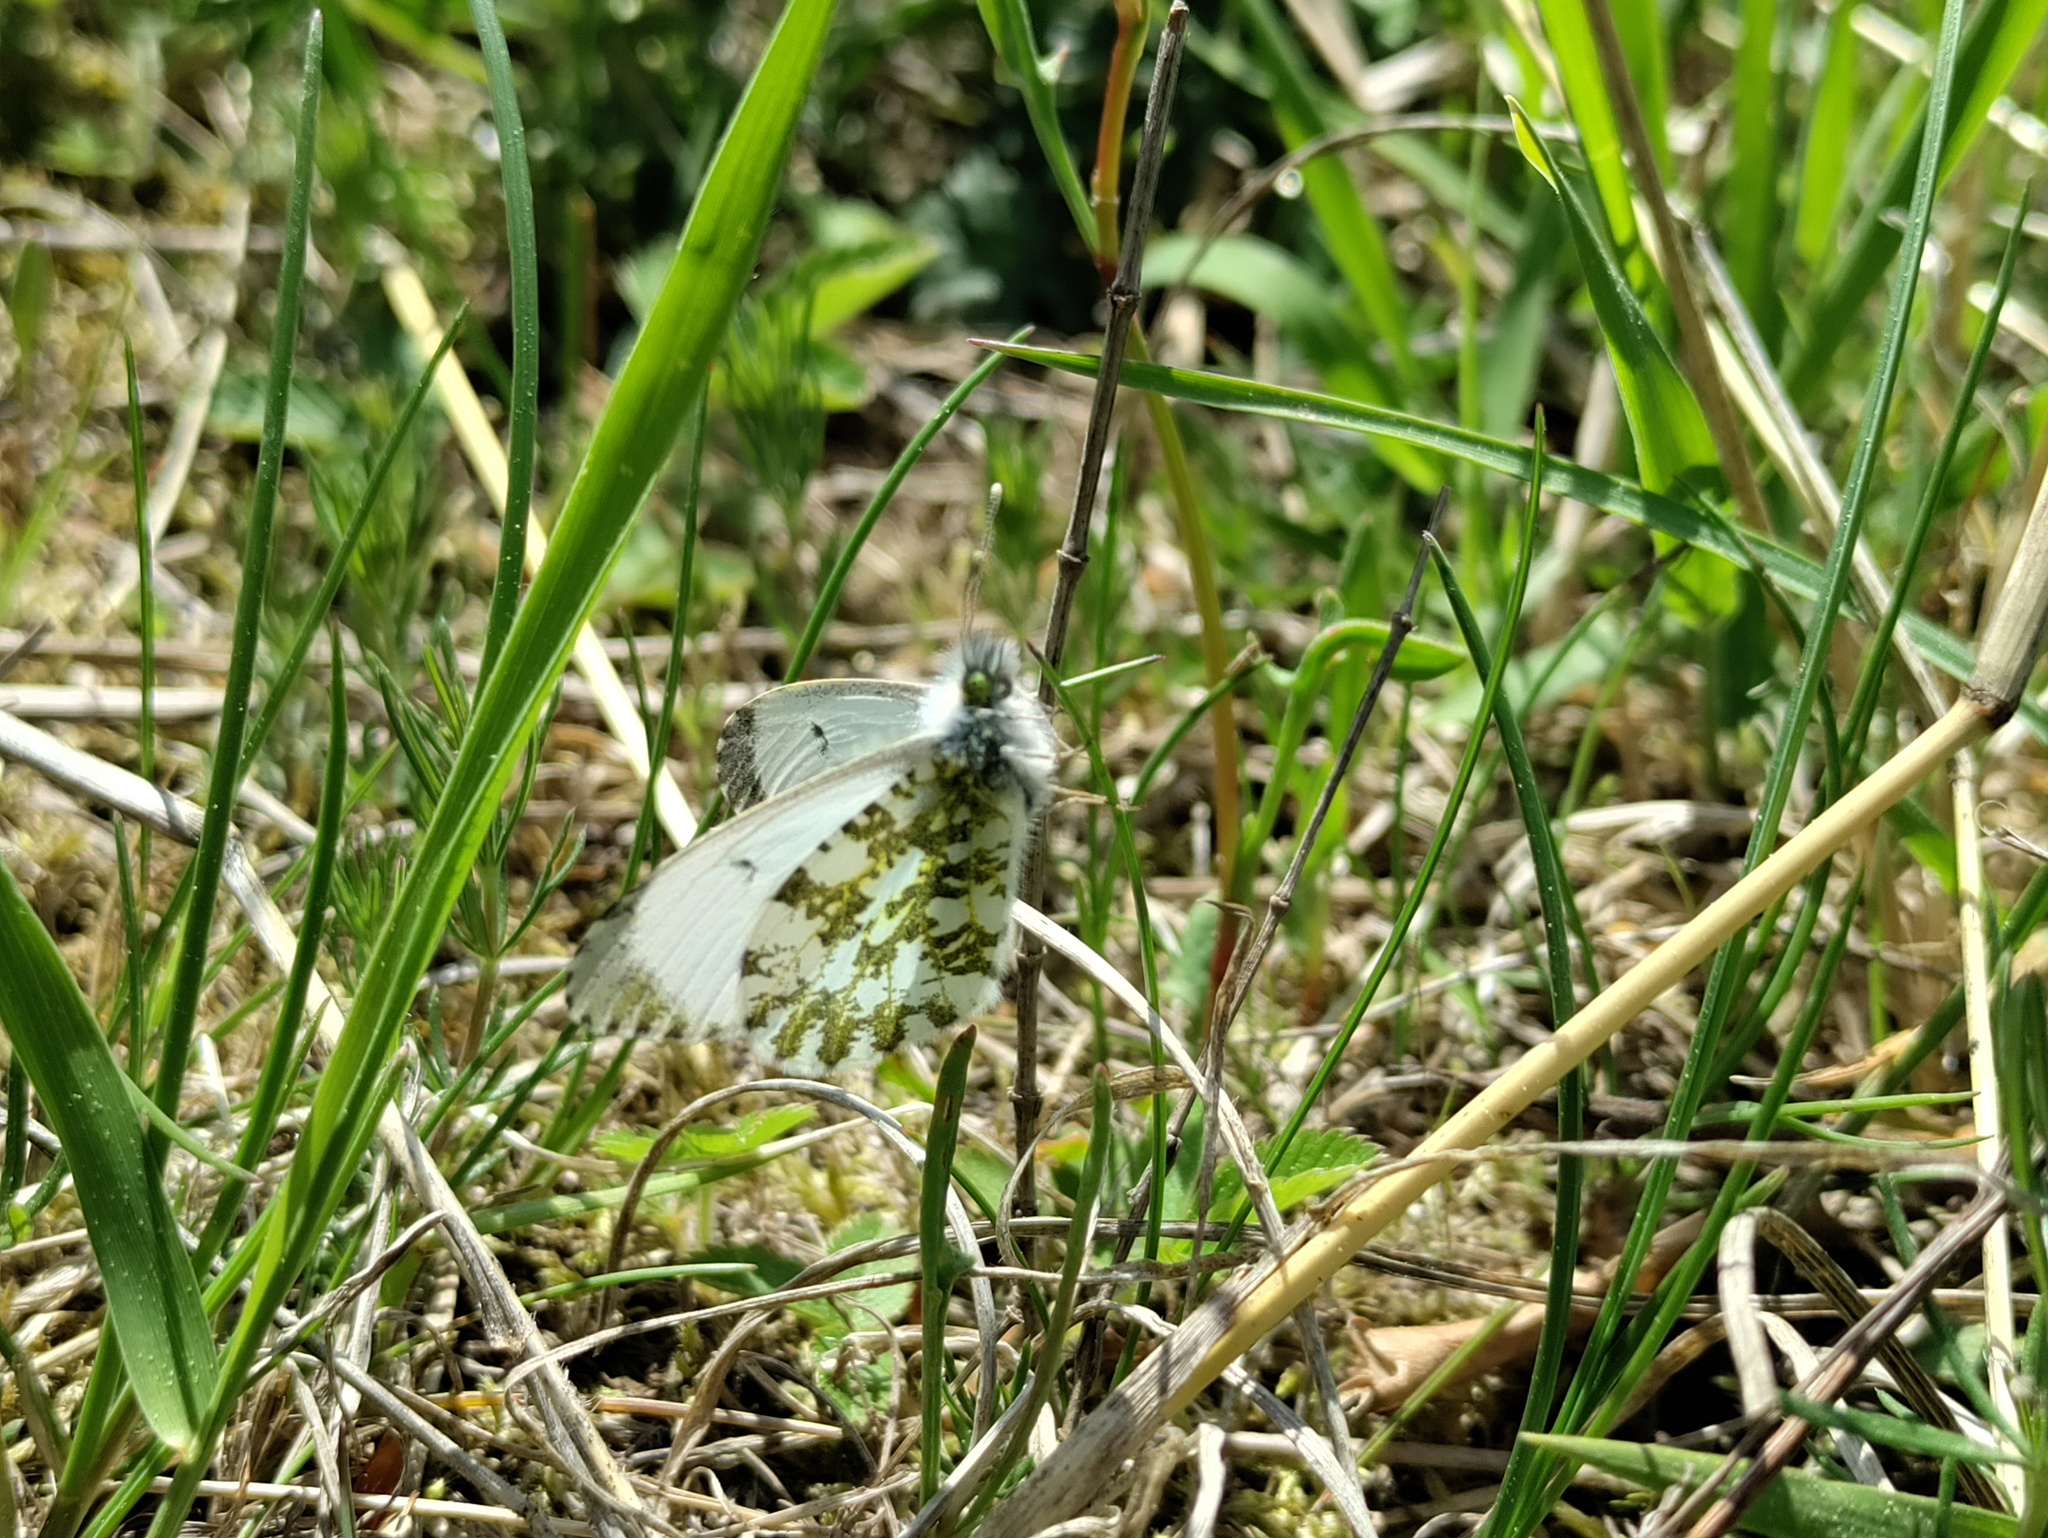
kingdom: Animalia
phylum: Arthropoda
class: Insecta
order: Lepidoptera
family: Pieridae
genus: Anthocharis
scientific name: Anthocharis cardamines
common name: Orange-tip
